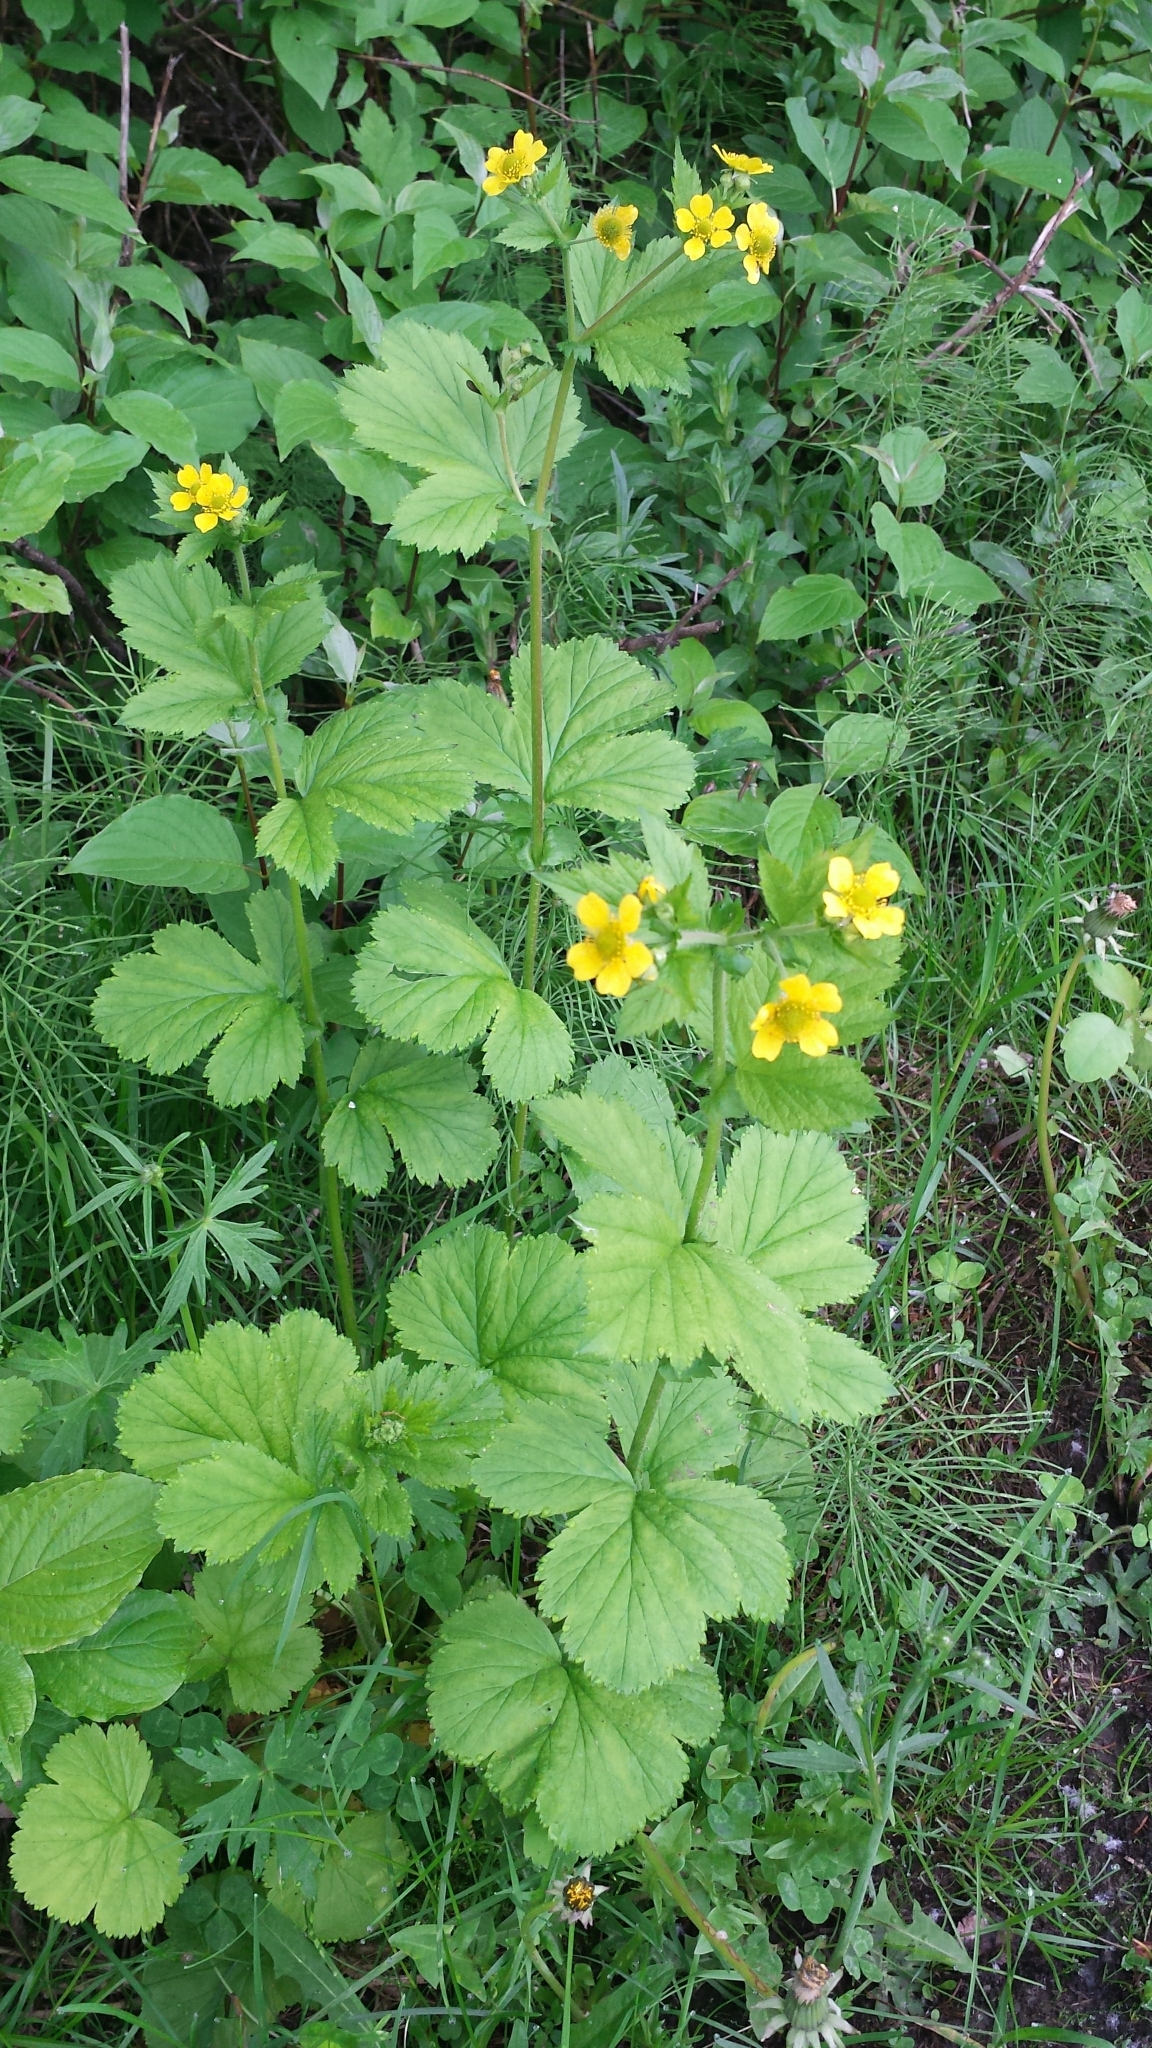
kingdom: Plantae
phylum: Tracheophyta
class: Magnoliopsida
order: Rosales
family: Rosaceae
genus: Geum
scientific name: Geum macrophyllum
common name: Large-leaved avens
